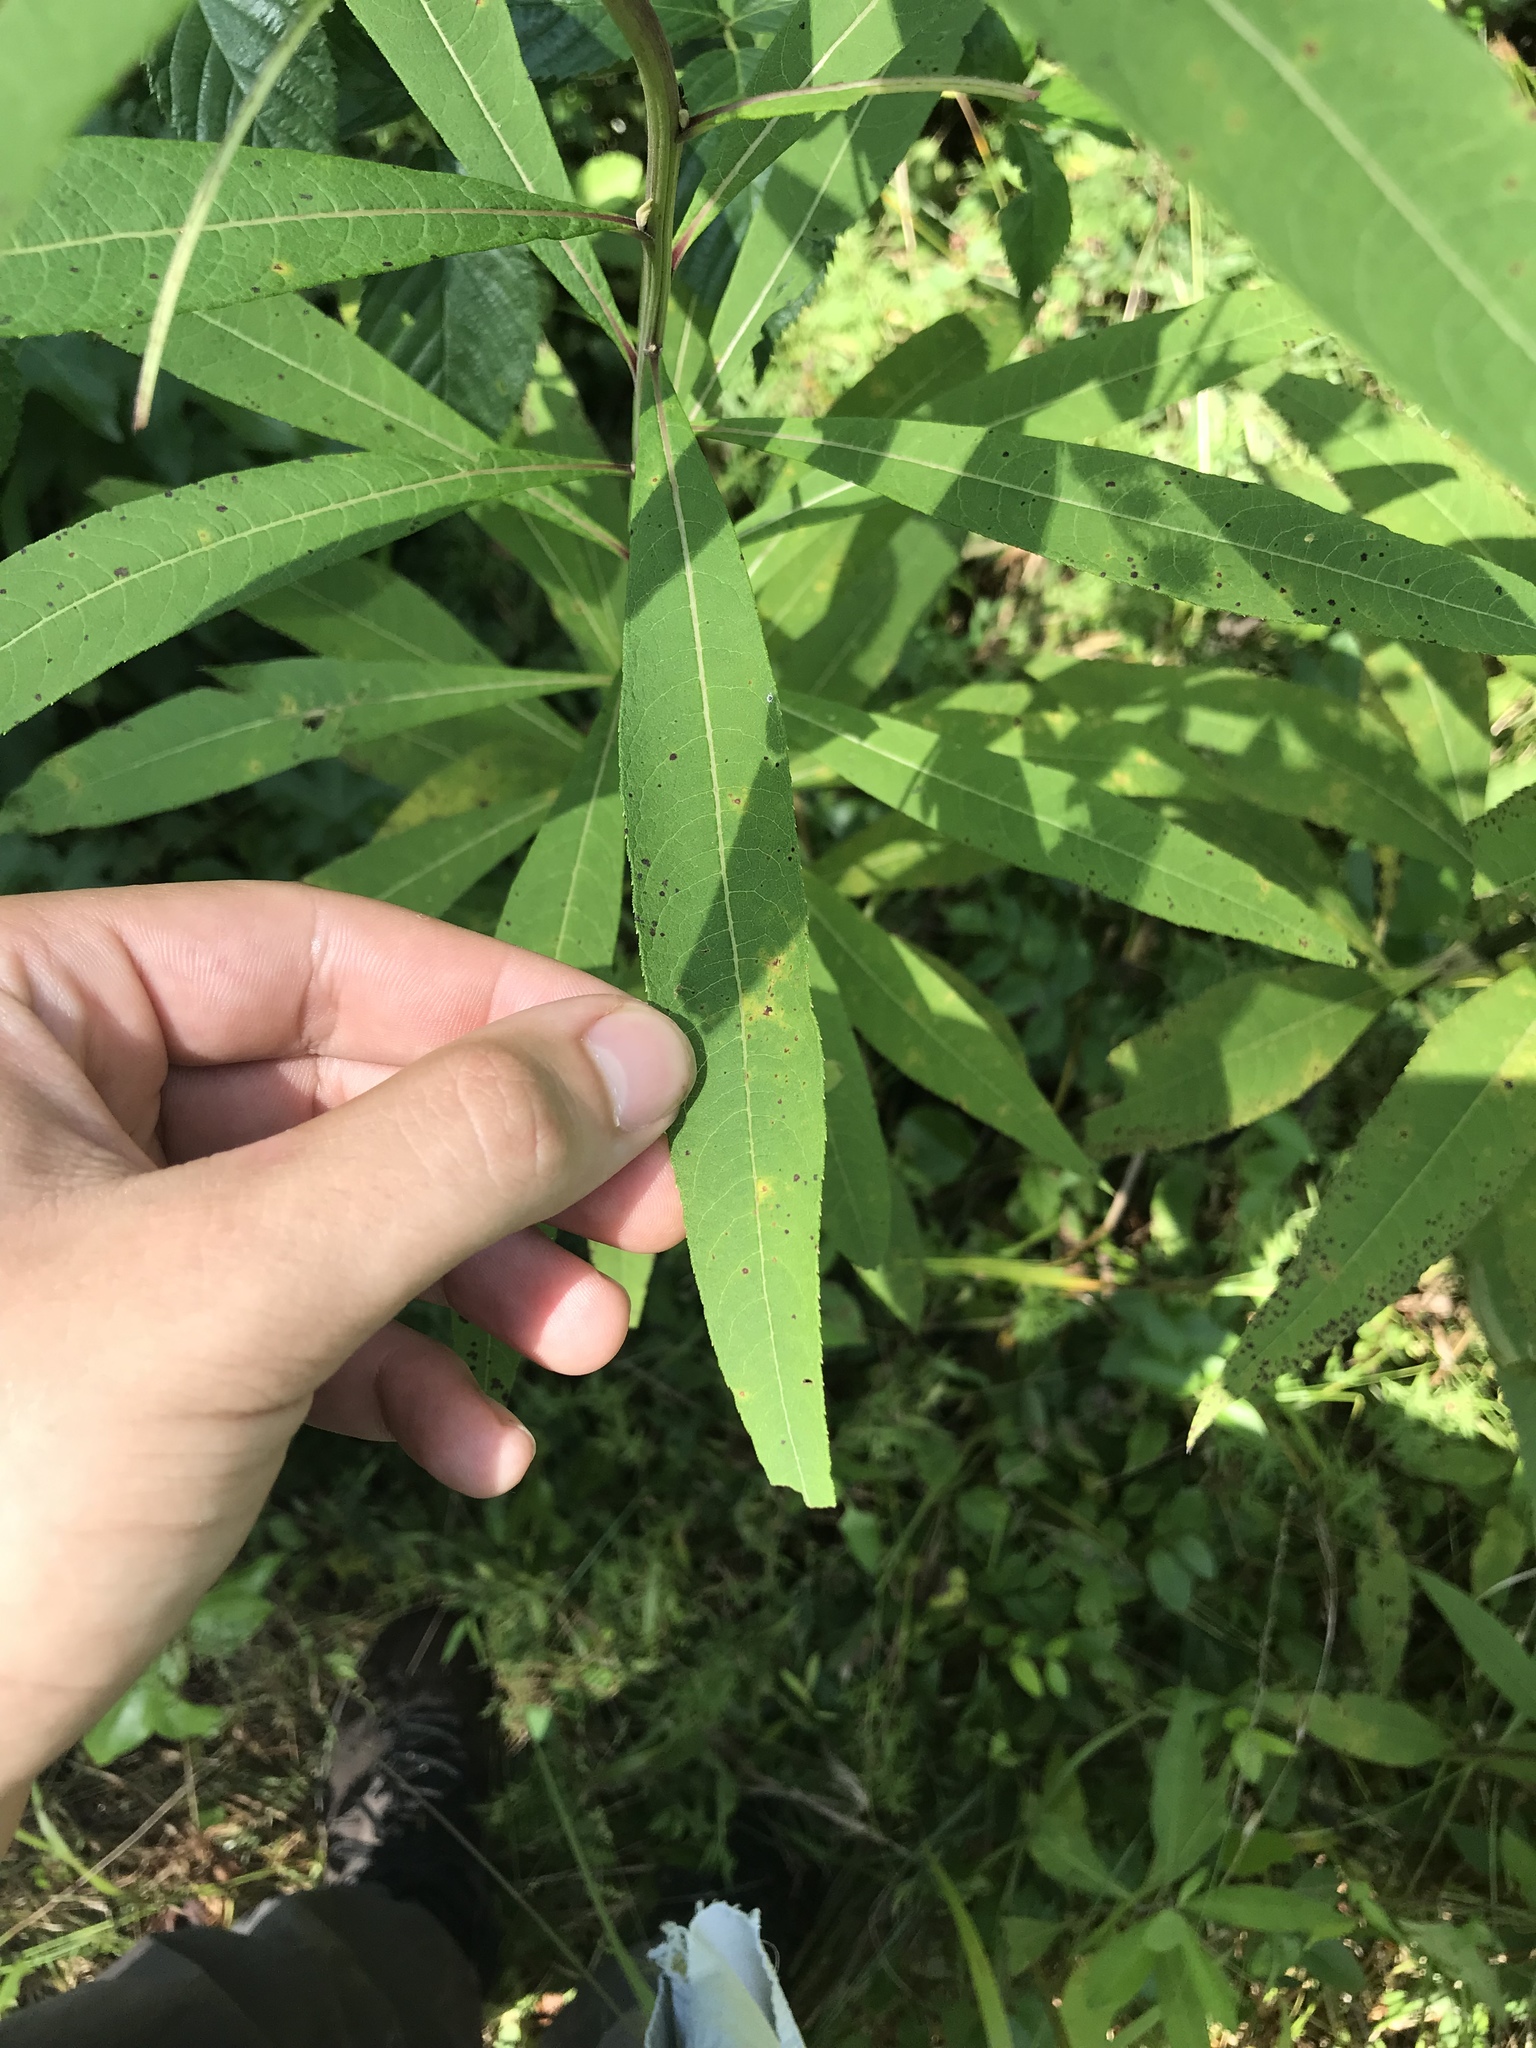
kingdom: Plantae
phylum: Tracheophyta
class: Magnoliopsida
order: Asterales
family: Asteraceae
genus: Vernonia
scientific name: Vernonia noveboracensis
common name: New york ironweed
